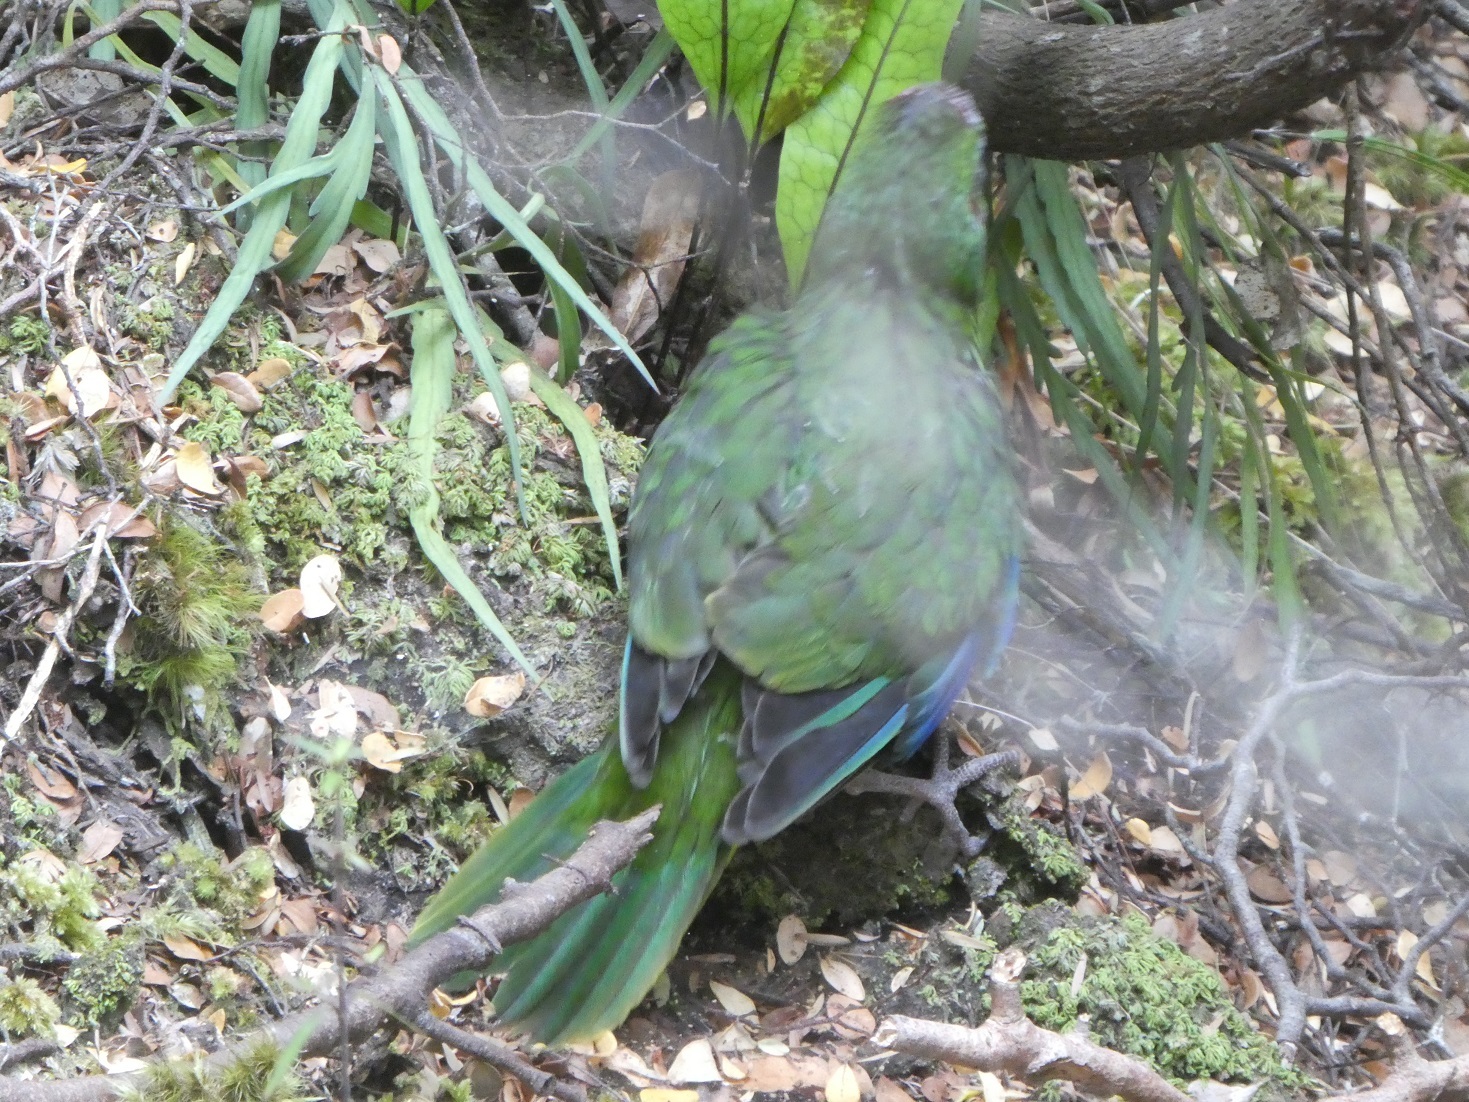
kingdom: Animalia
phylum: Chordata
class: Aves
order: Psittaciformes
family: Psittacidae
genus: Cyanoramphus
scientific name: Cyanoramphus novaezelandiae
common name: Red-fronted parakeet
